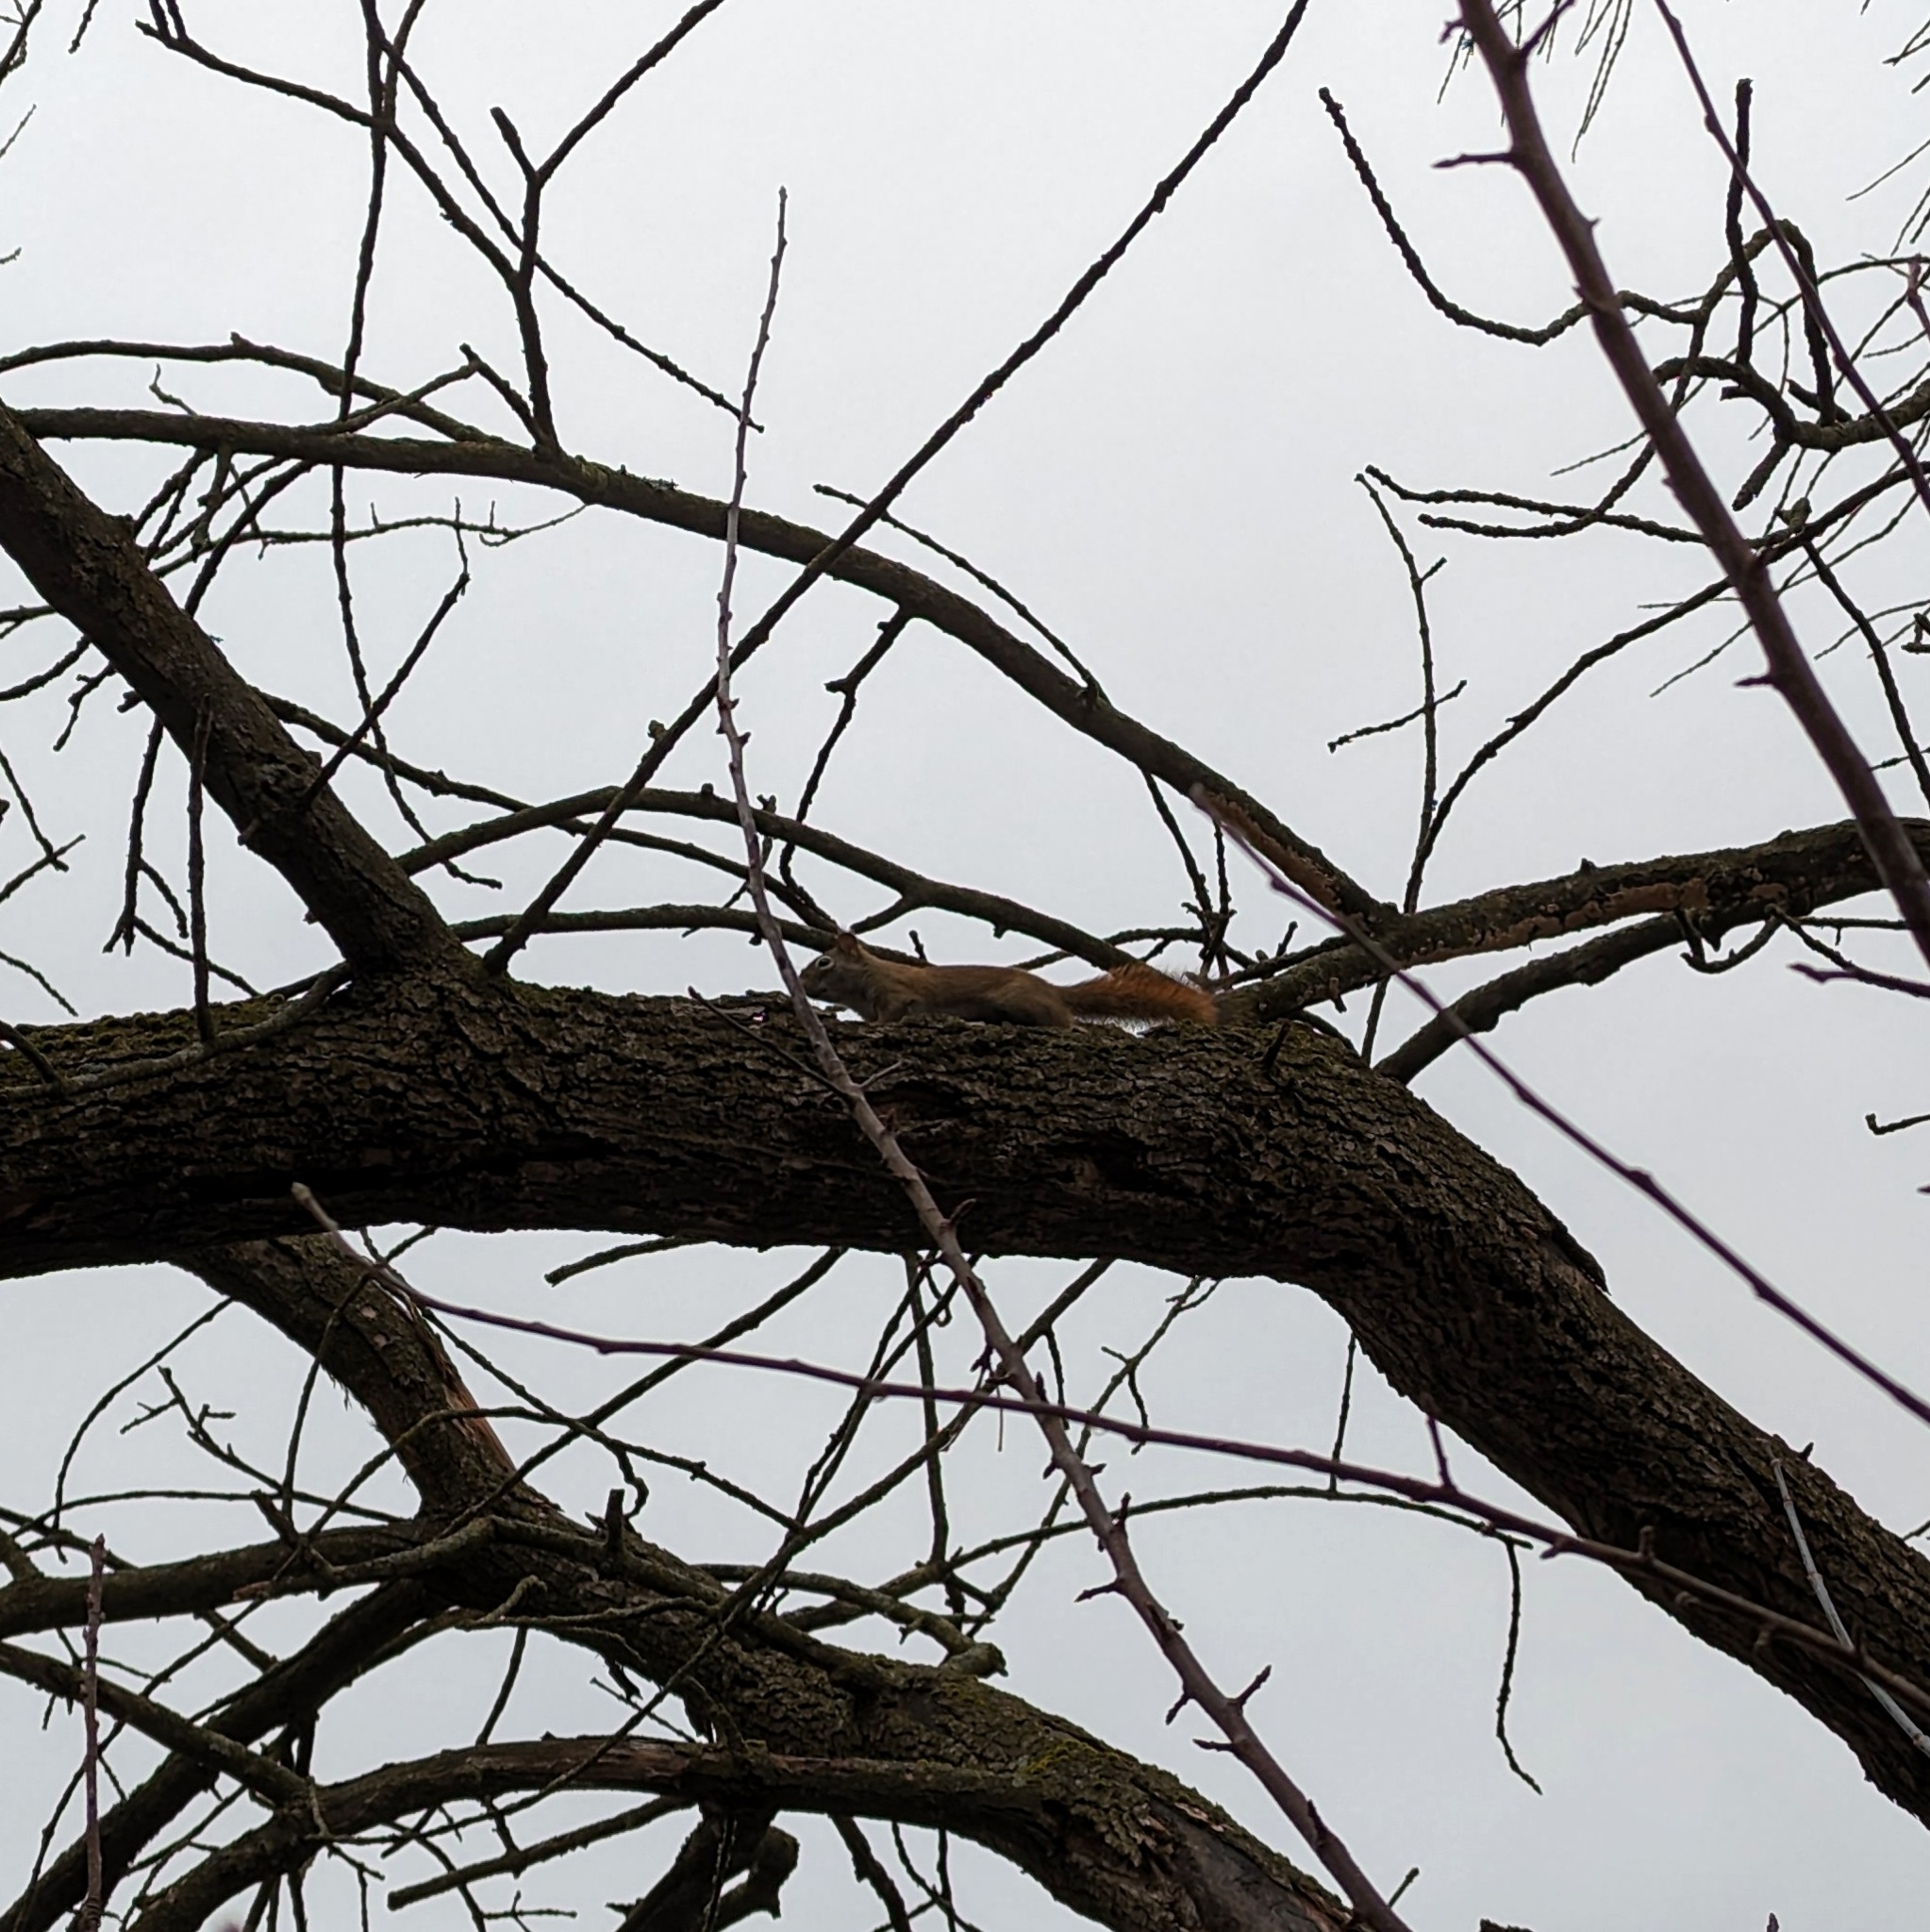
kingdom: Animalia
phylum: Chordata
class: Mammalia
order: Rodentia
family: Sciuridae
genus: Tamiasciurus
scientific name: Tamiasciurus hudsonicus
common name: Red squirrel
